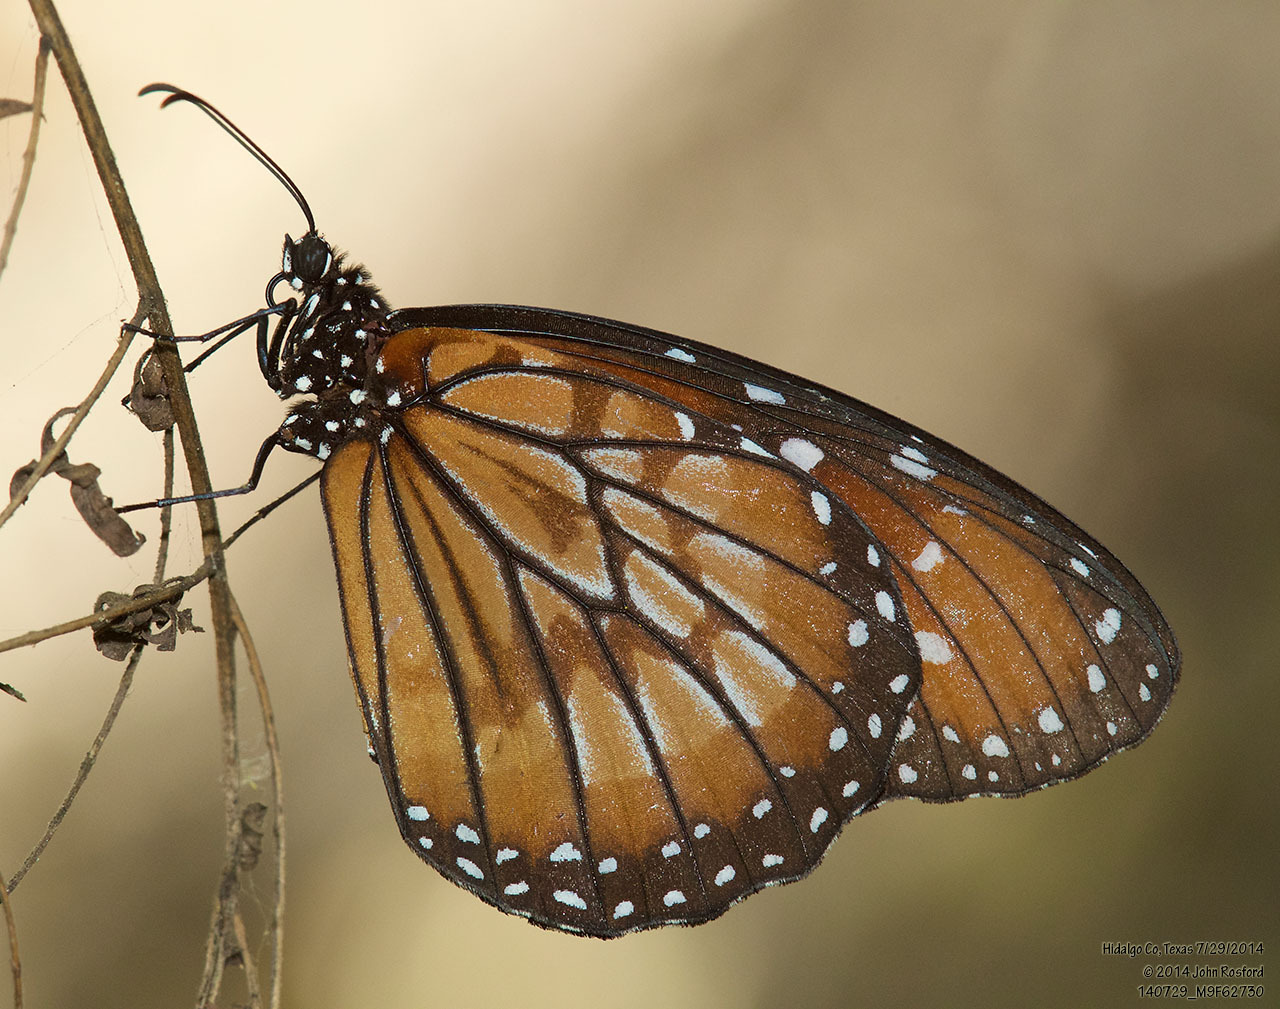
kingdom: Animalia
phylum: Arthropoda
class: Insecta
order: Lepidoptera
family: Nymphalidae
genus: Danaus
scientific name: Danaus eresimus
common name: Soldier
